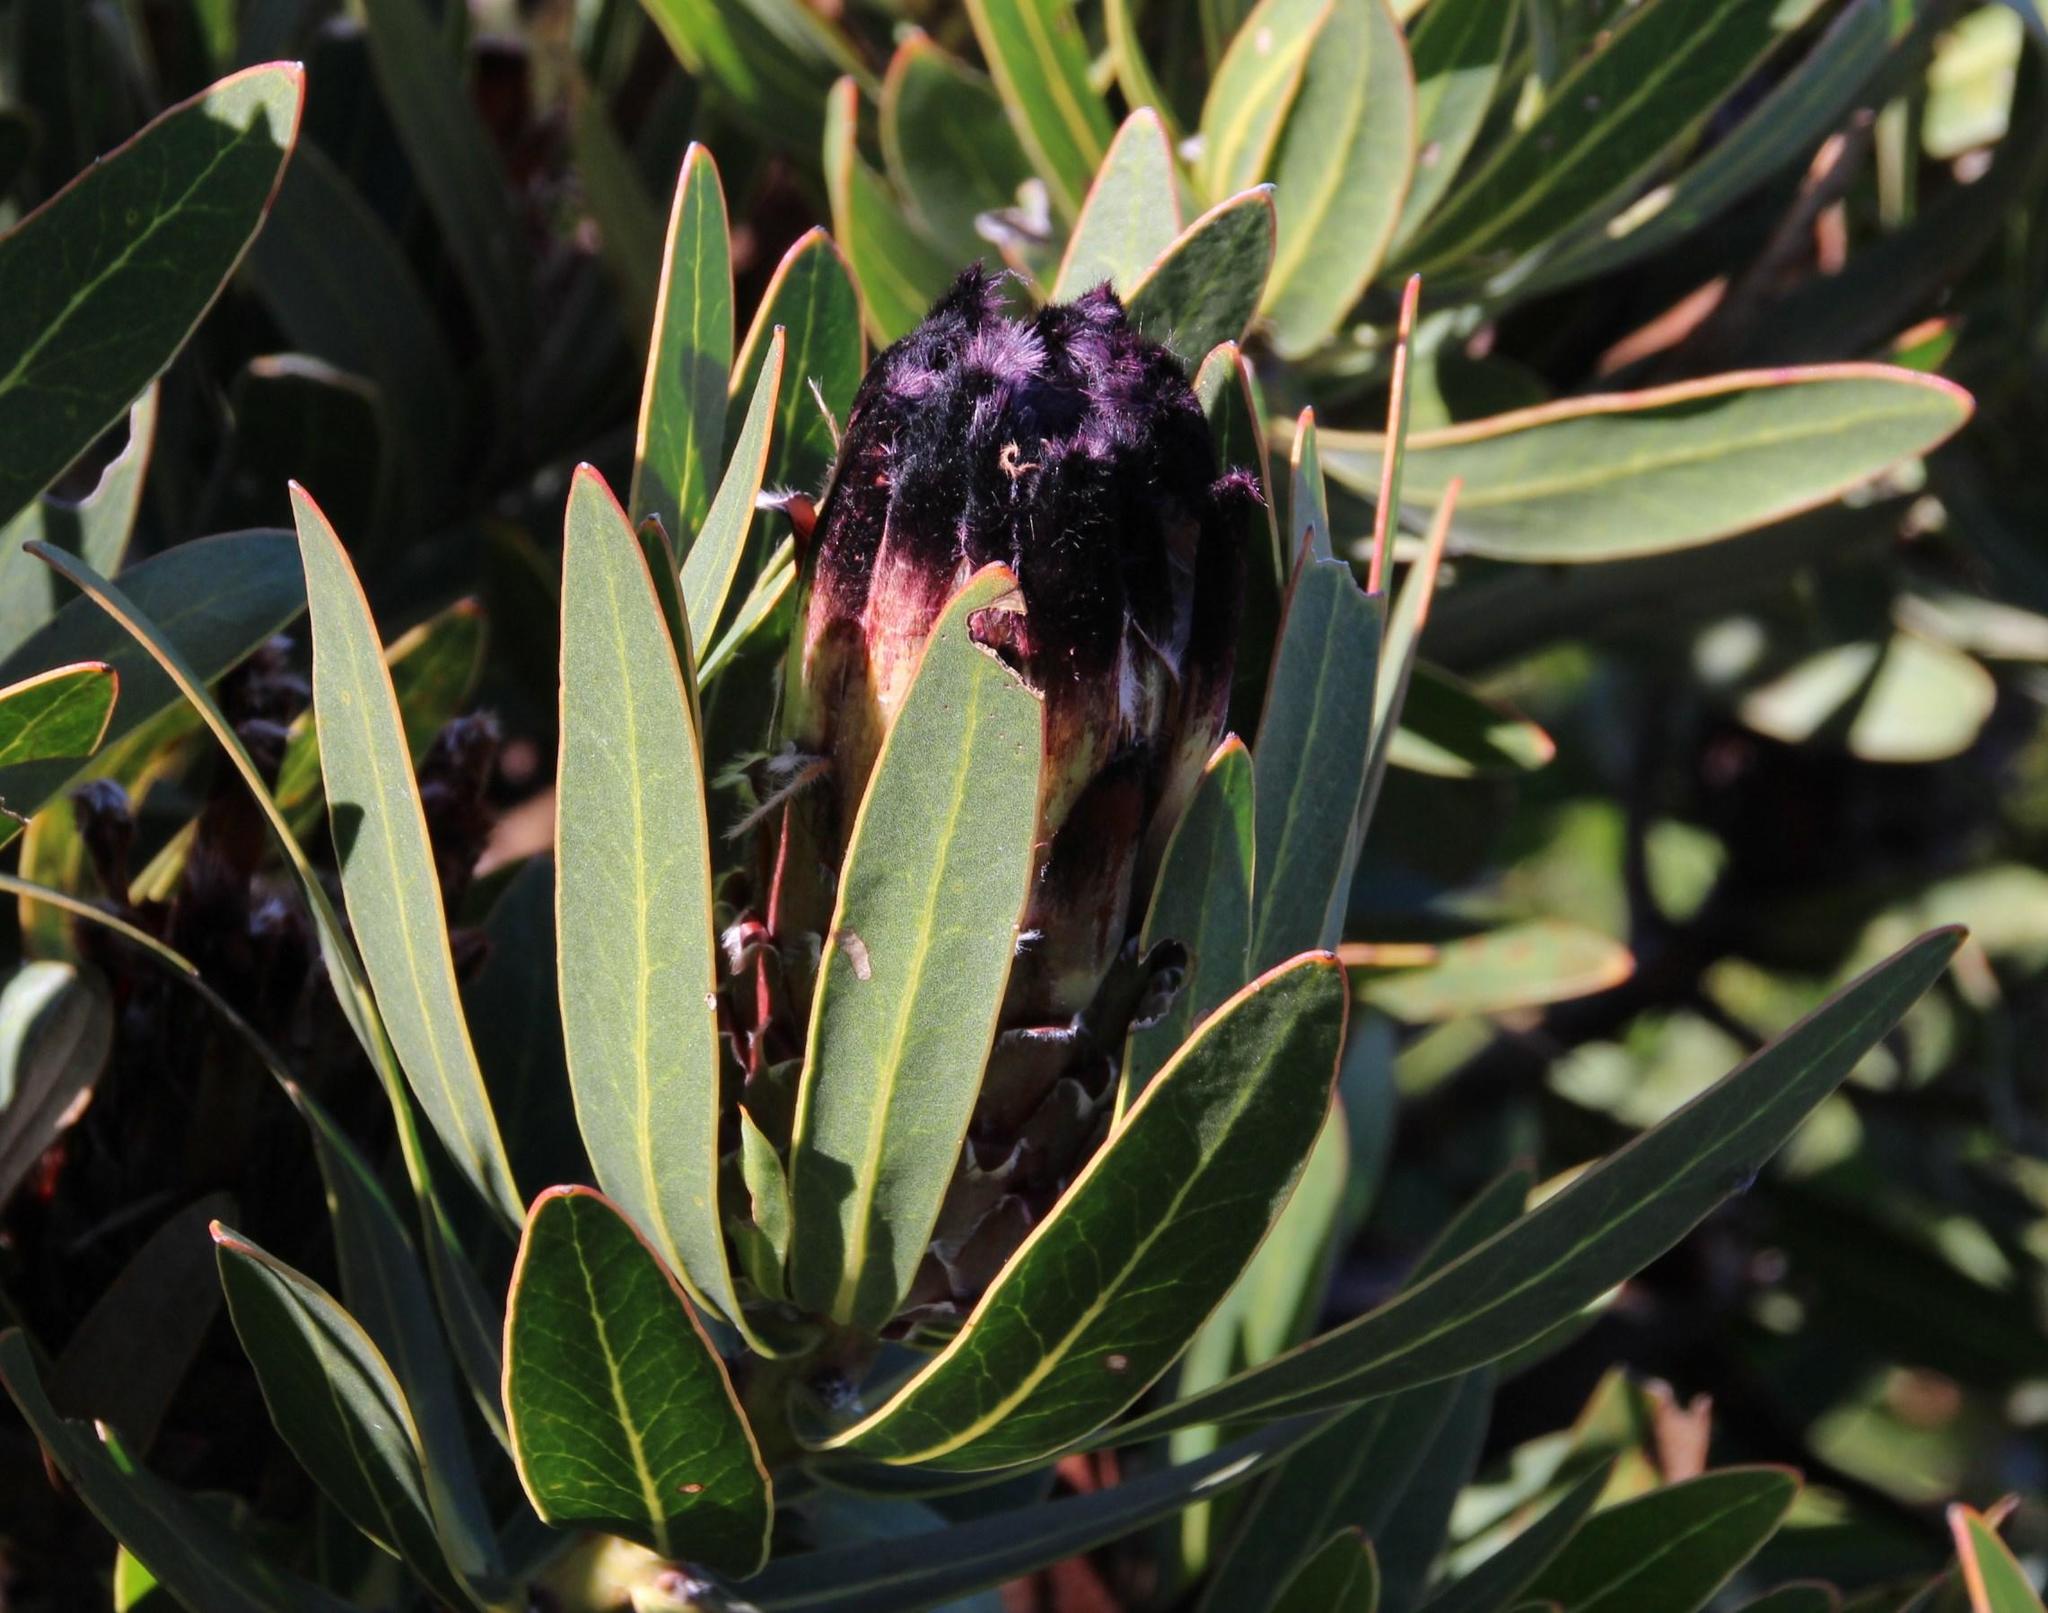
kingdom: Plantae
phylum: Tracheophyta
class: Magnoliopsida
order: Proteales
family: Proteaceae
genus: Protea
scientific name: Protea lepidocarpodendron
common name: Black-bearded protea
